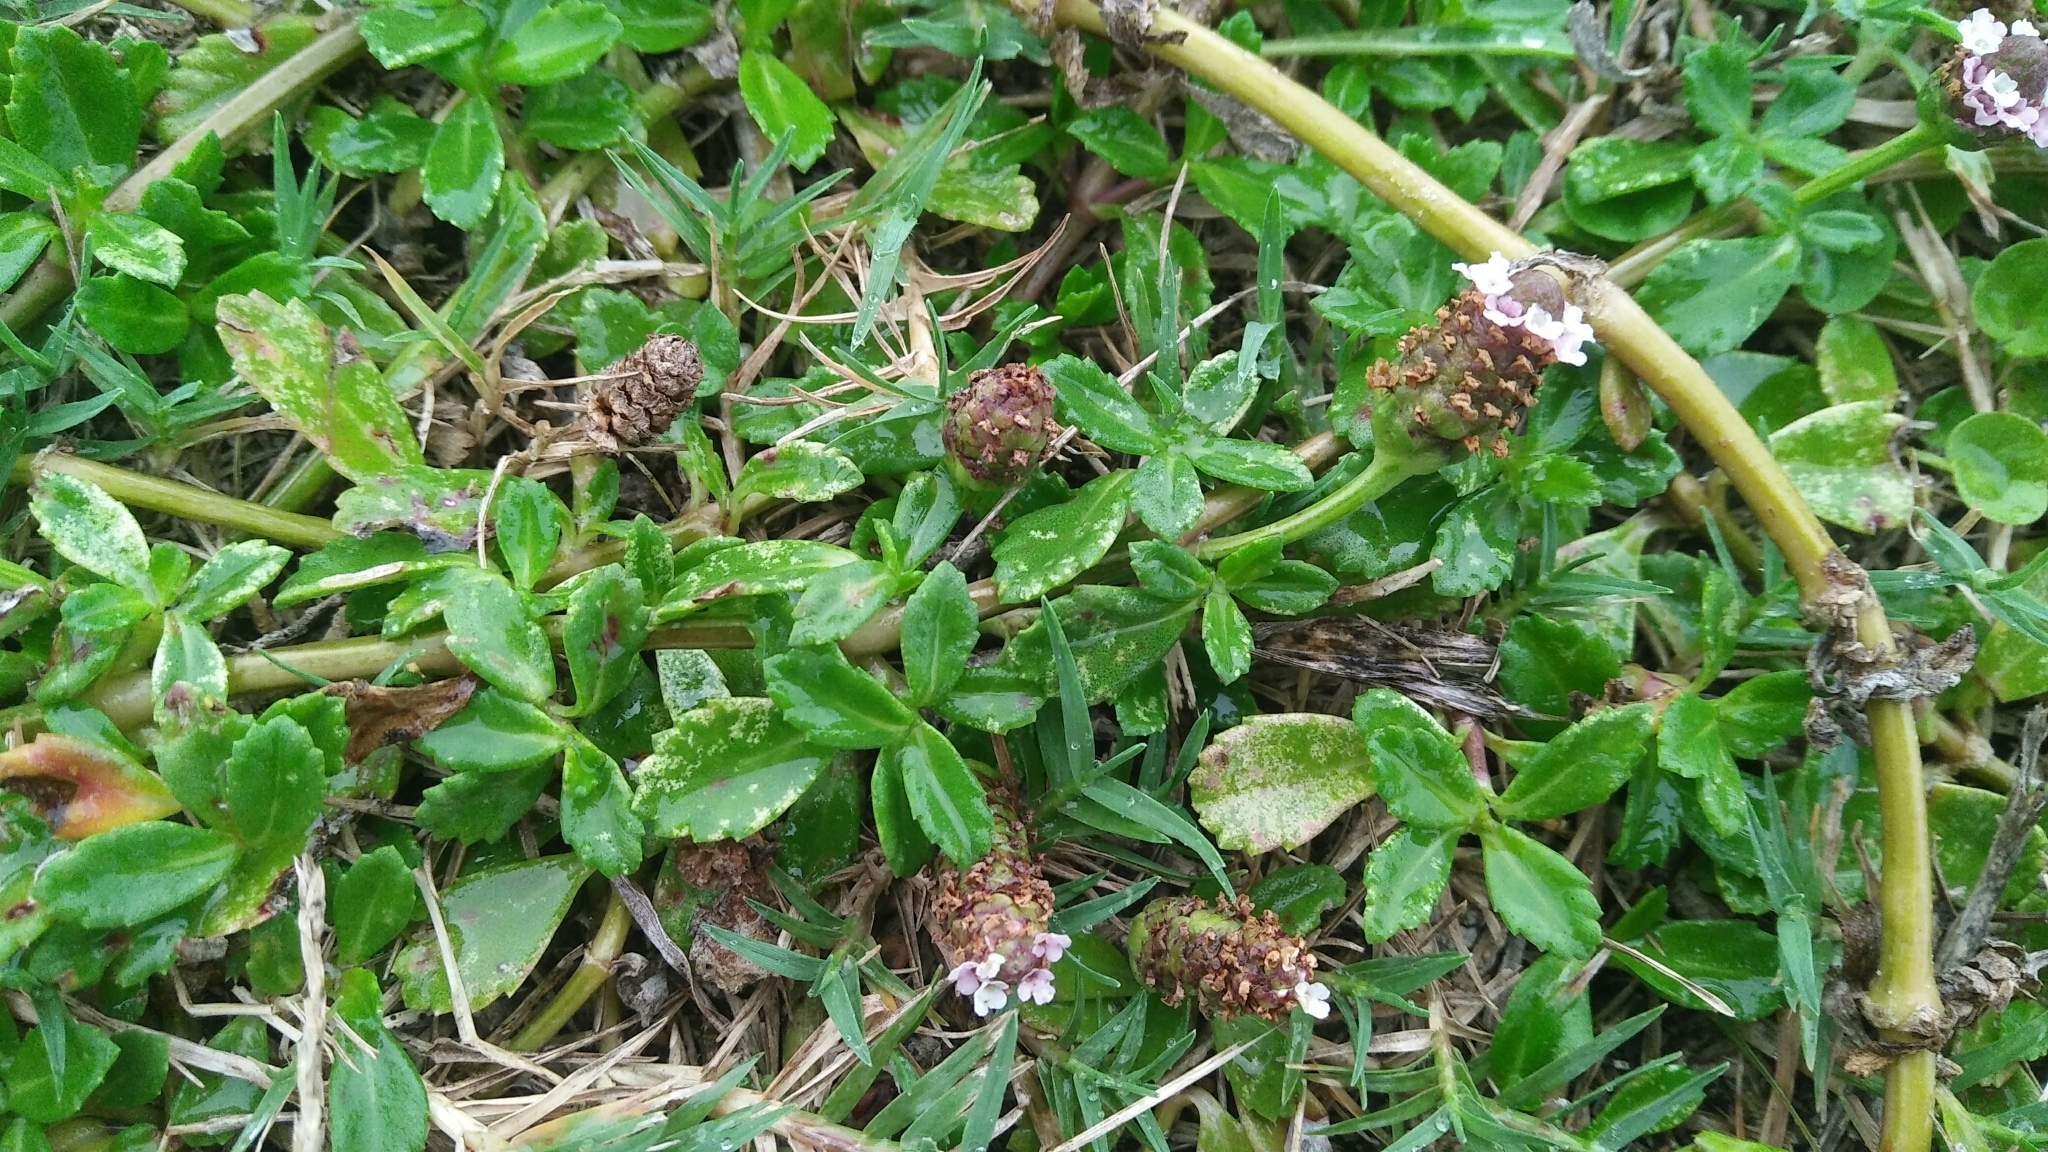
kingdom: Plantae
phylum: Tracheophyta
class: Magnoliopsida
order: Lamiales
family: Verbenaceae
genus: Phyla
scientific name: Phyla nodiflora
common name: Frogfruit
